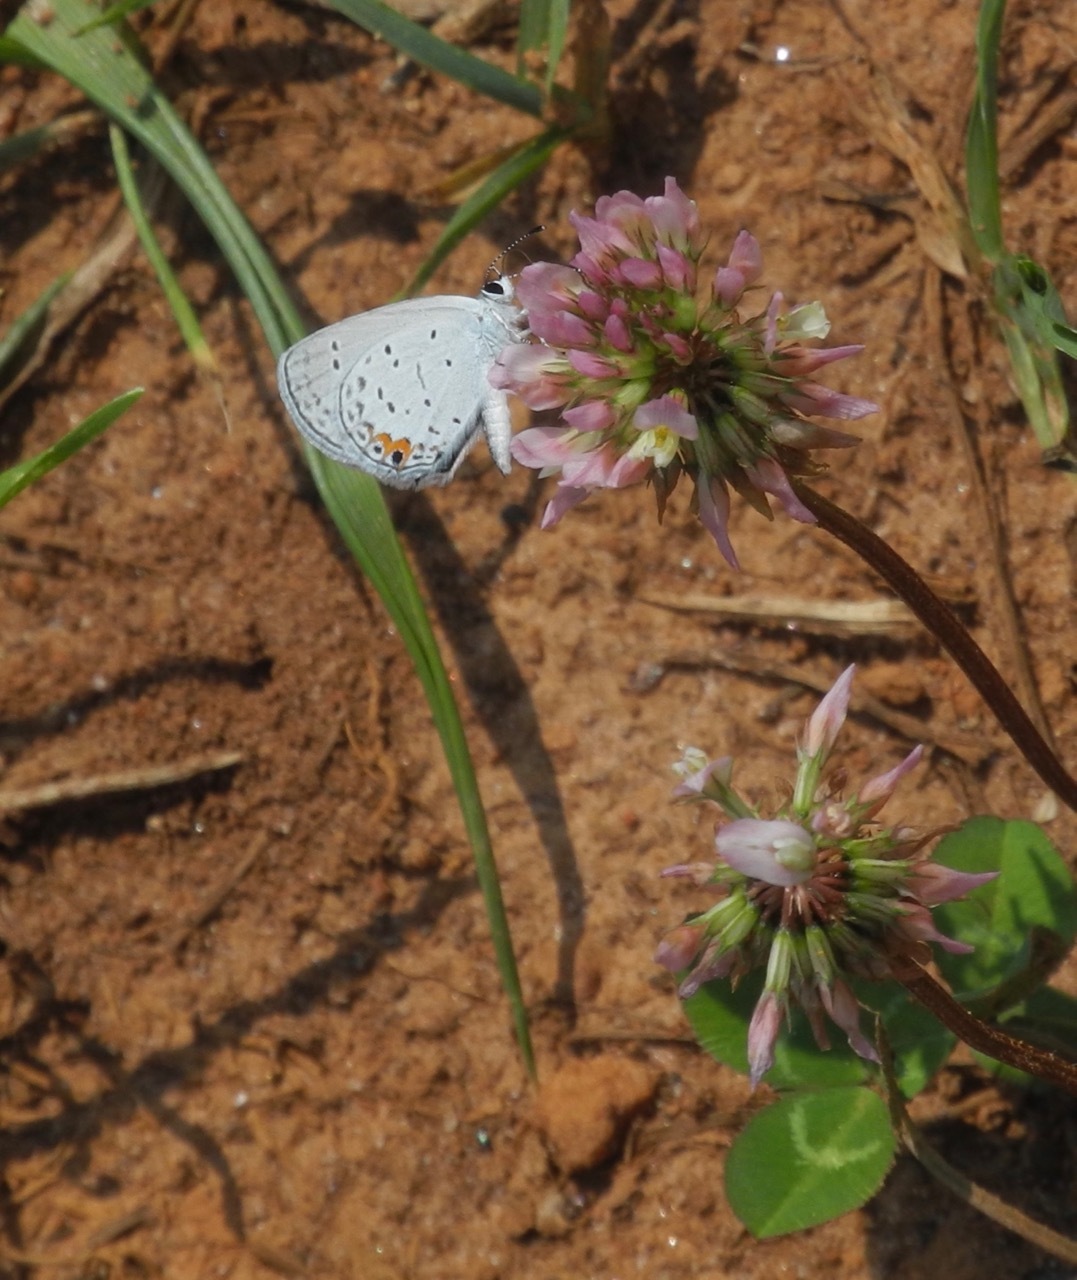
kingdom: Animalia
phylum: Arthropoda
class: Insecta
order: Lepidoptera
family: Lycaenidae
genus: Elkalyce
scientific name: Elkalyce comyntas
